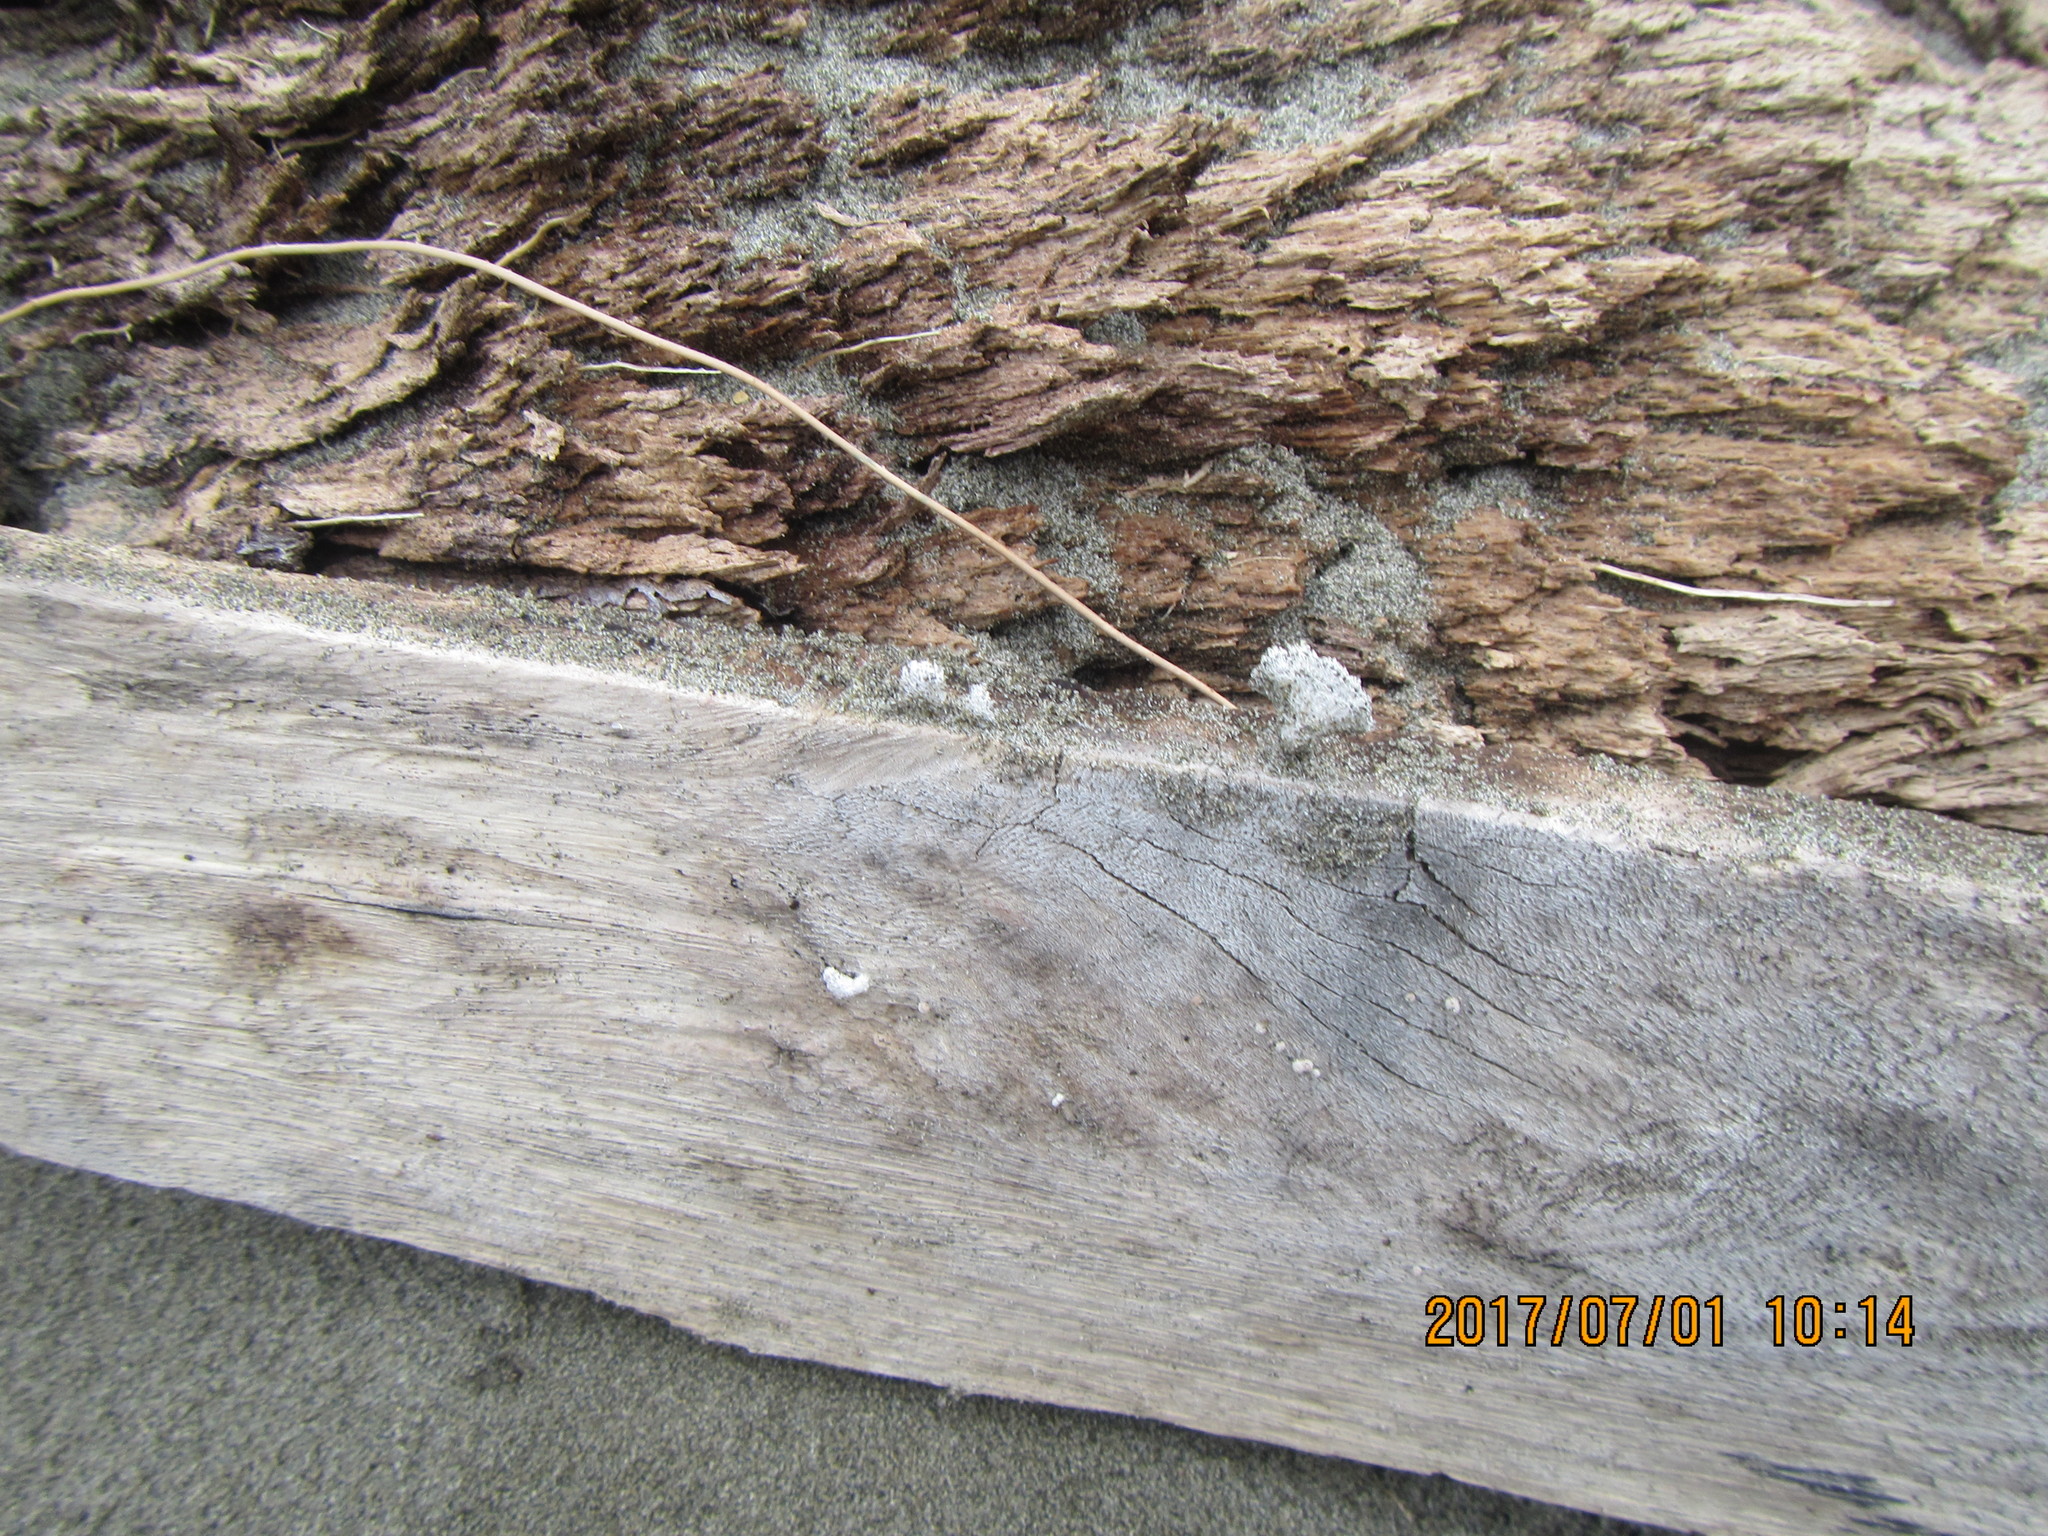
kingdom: Fungi
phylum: Basidiomycota
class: Agaricomycetes
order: Agaricales
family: Schizophyllaceae
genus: Schizophyllum
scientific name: Schizophyllum commune
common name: Common porecrust
